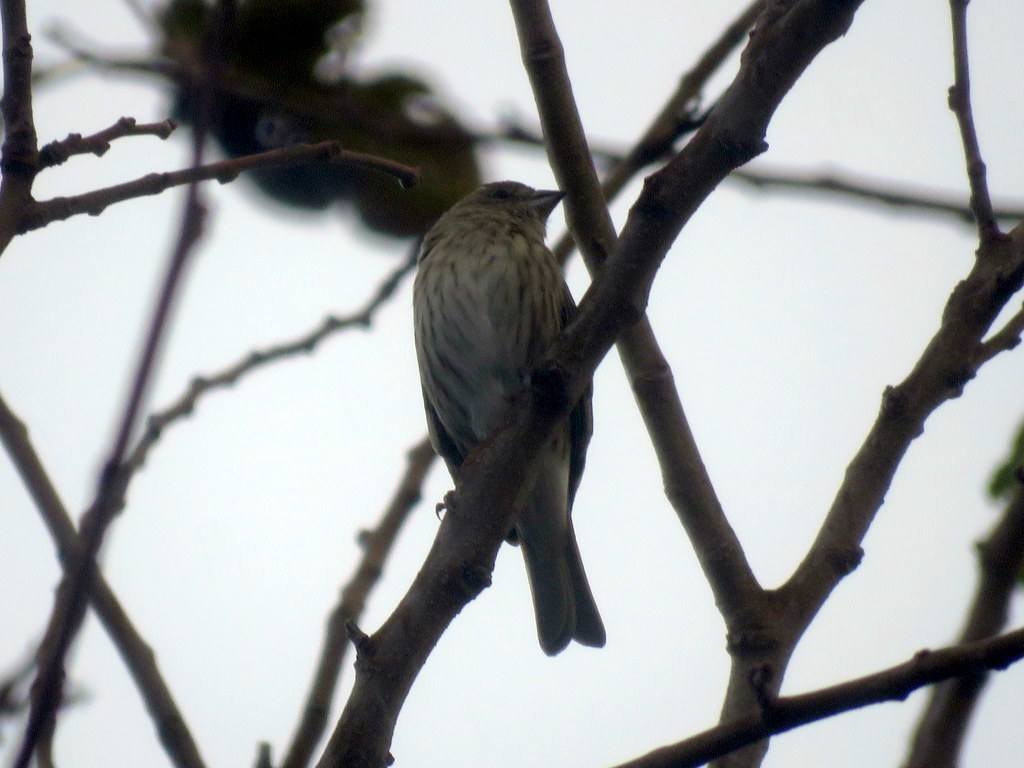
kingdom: Animalia
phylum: Chordata
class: Aves
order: Passeriformes
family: Thraupidae
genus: Sicalis
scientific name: Sicalis flaveola
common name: Saffron finch
